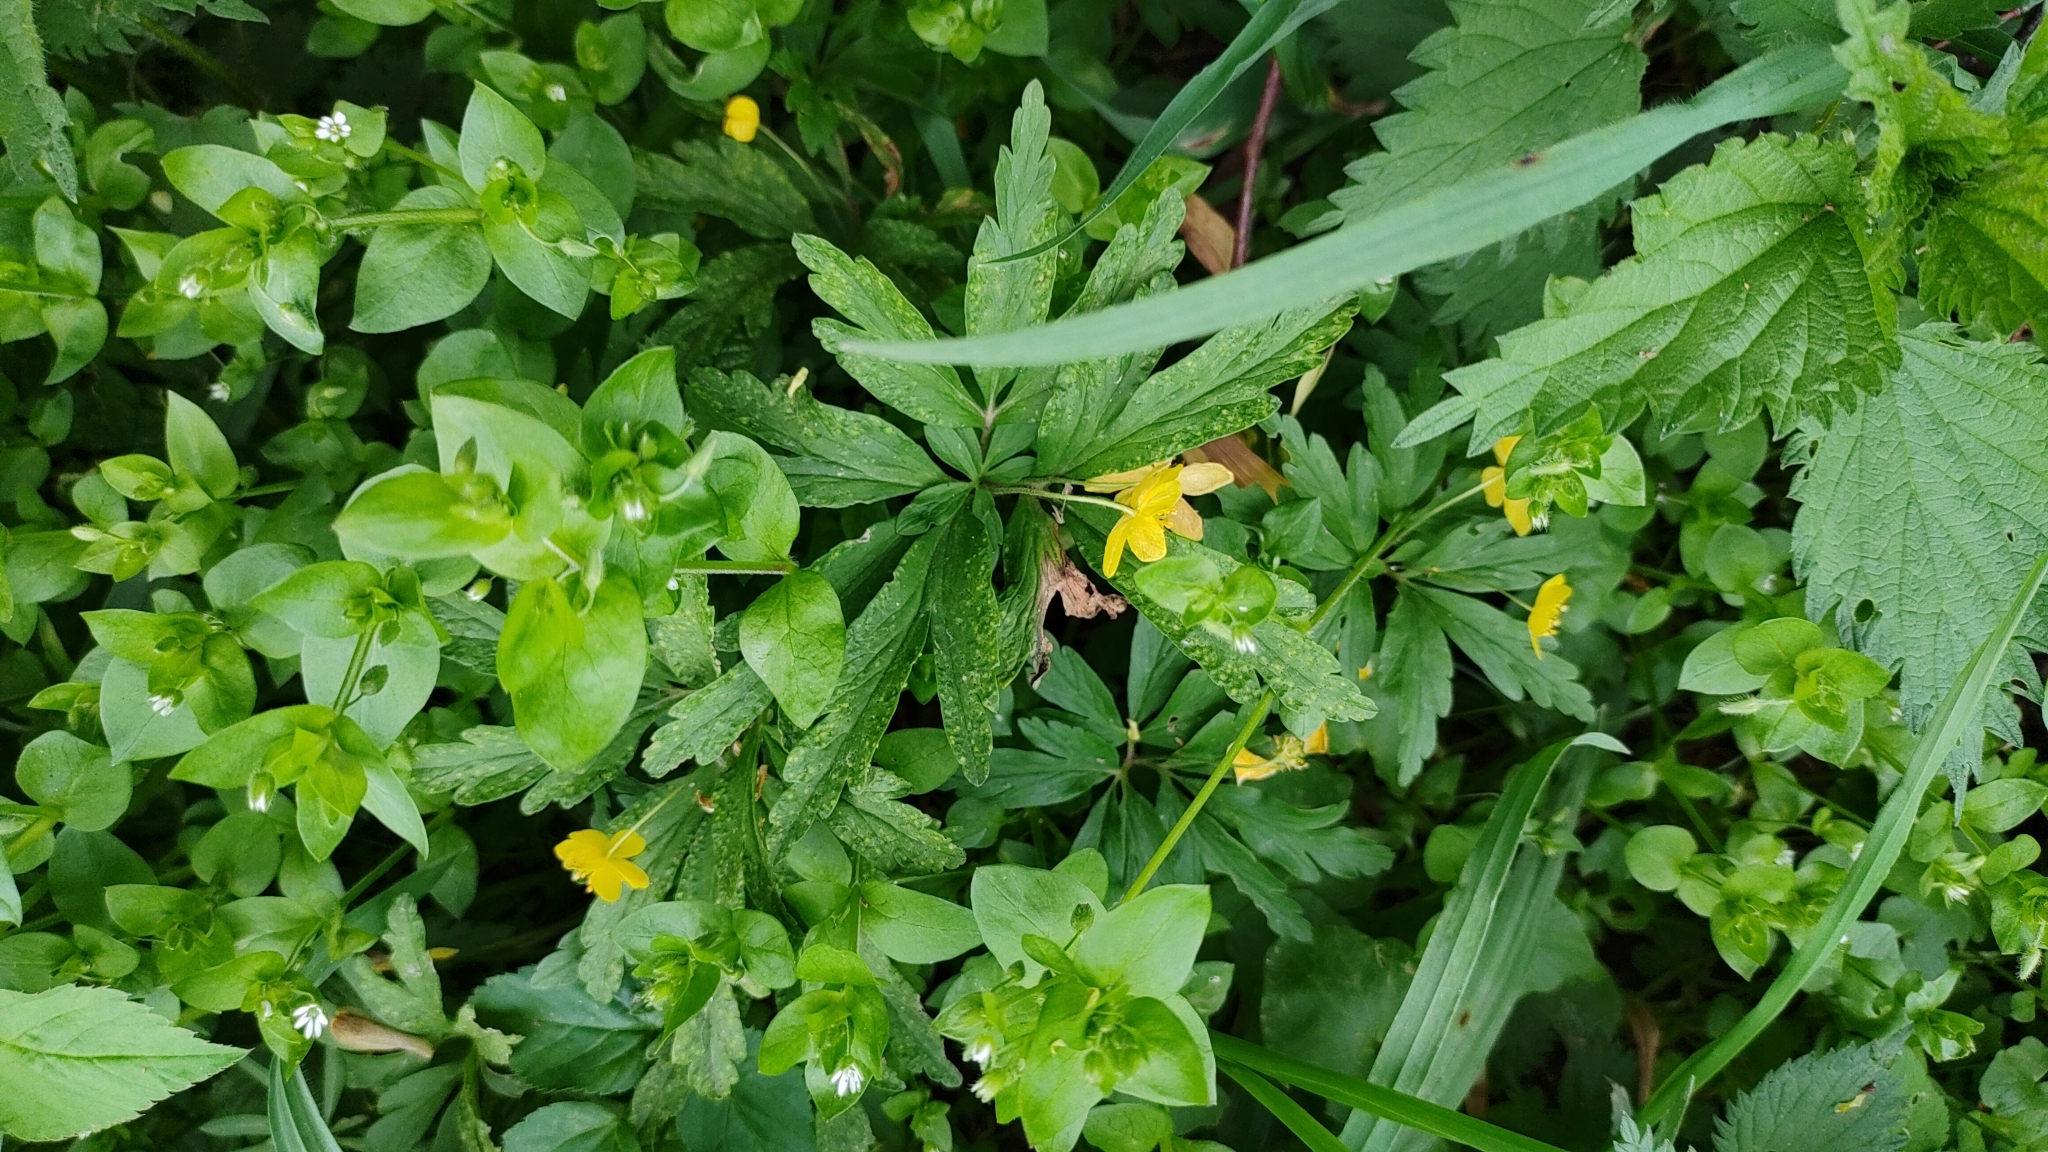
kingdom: Plantae
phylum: Tracheophyta
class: Magnoliopsida
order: Ranunculales
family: Ranunculaceae
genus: Anemone
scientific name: Anemone ranunculoides
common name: Yellow anemone
